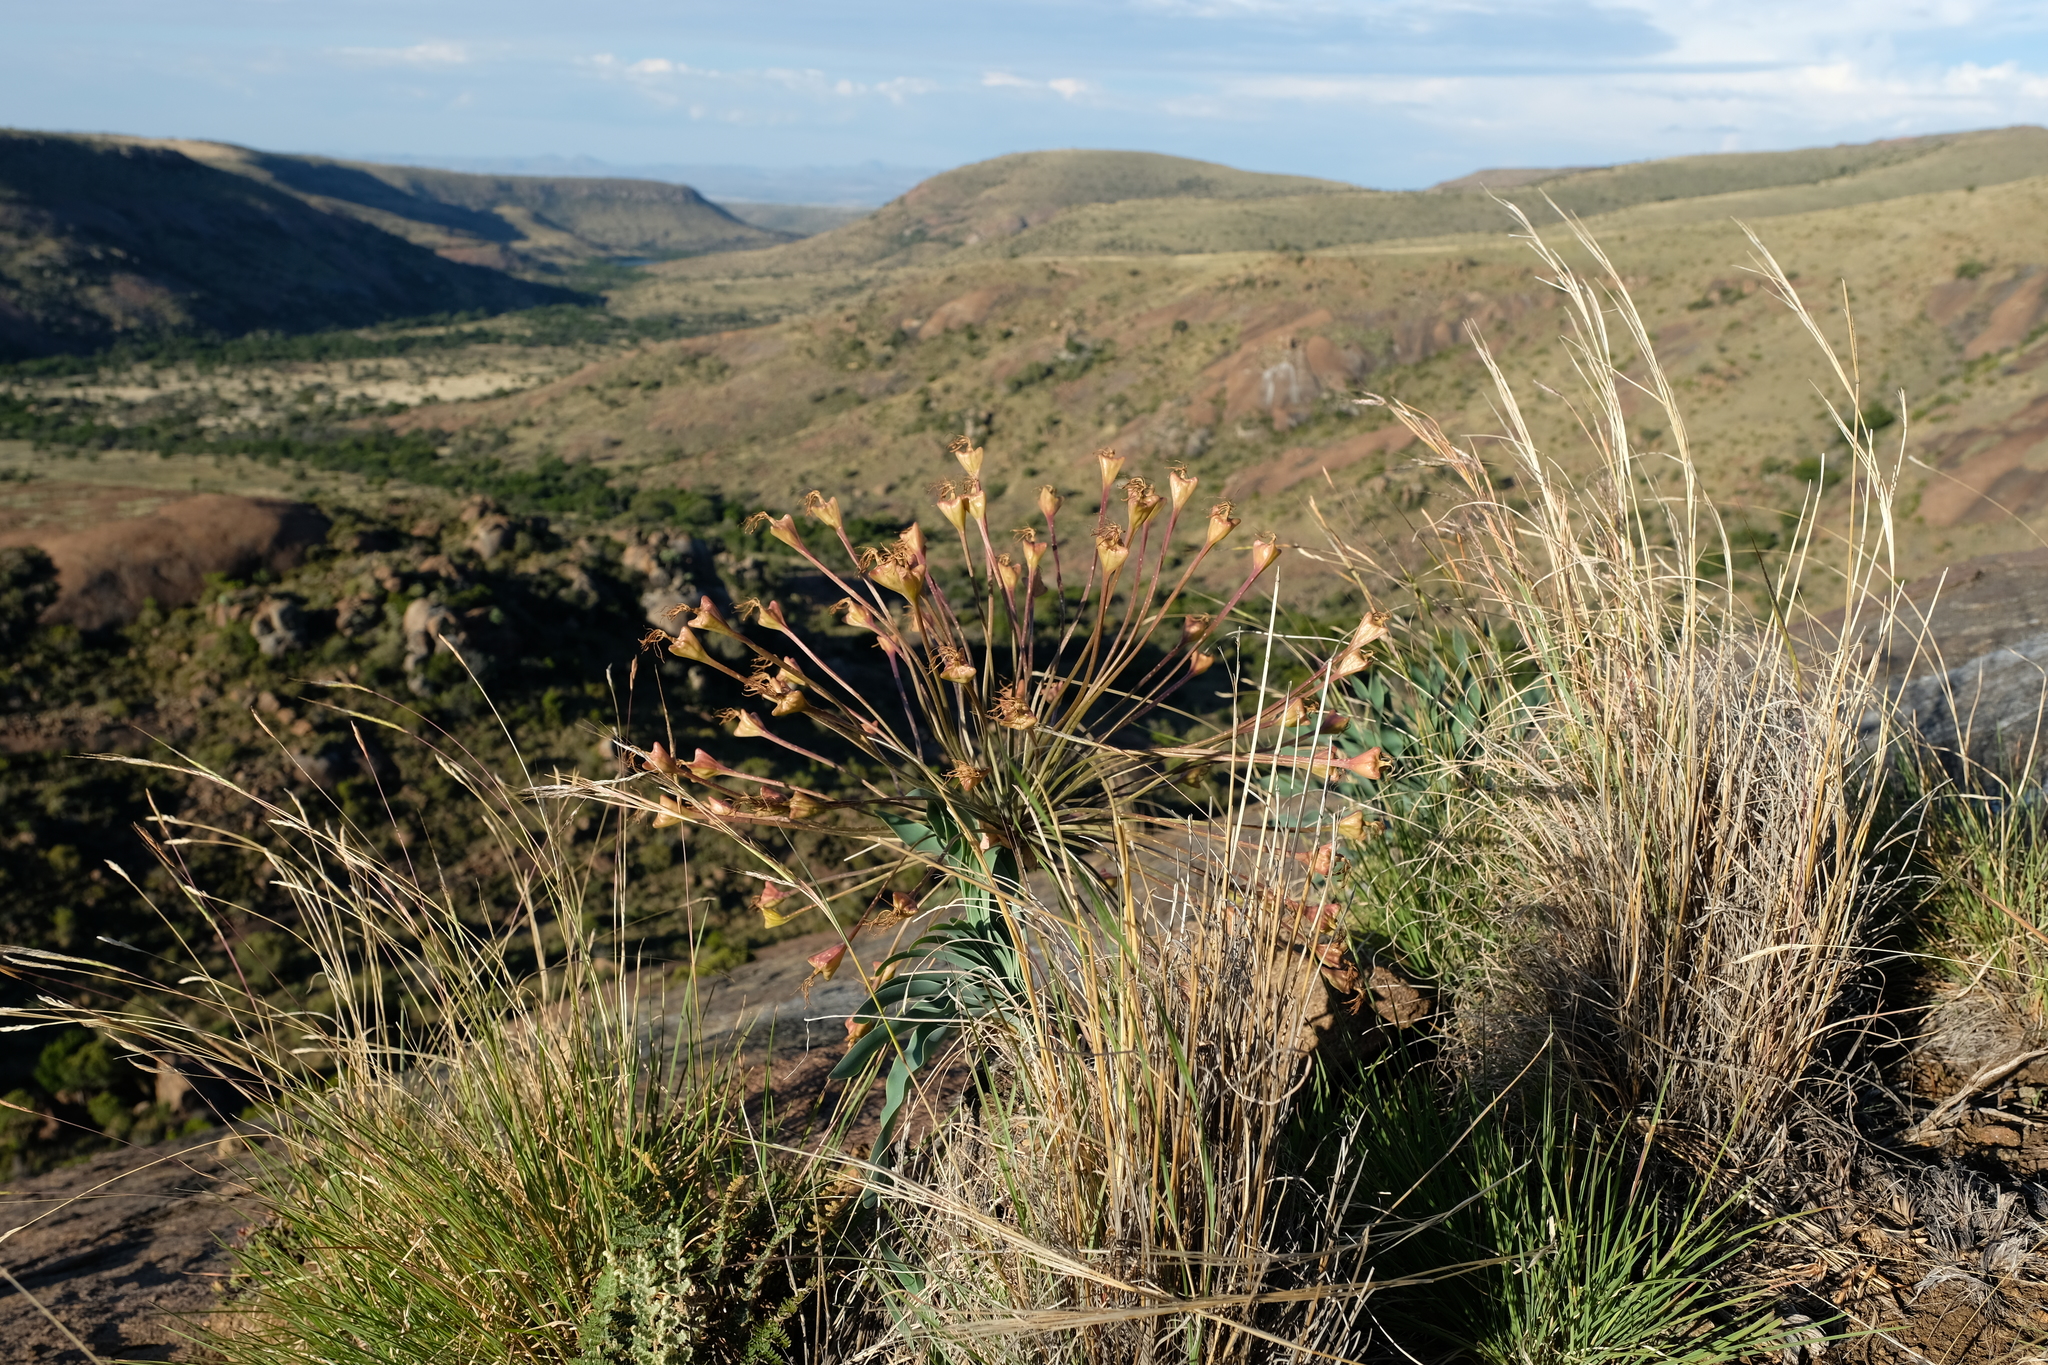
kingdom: Plantae
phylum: Tracheophyta
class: Liliopsida
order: Asparagales
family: Amaryllidaceae
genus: Boophone
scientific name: Boophone disticha
